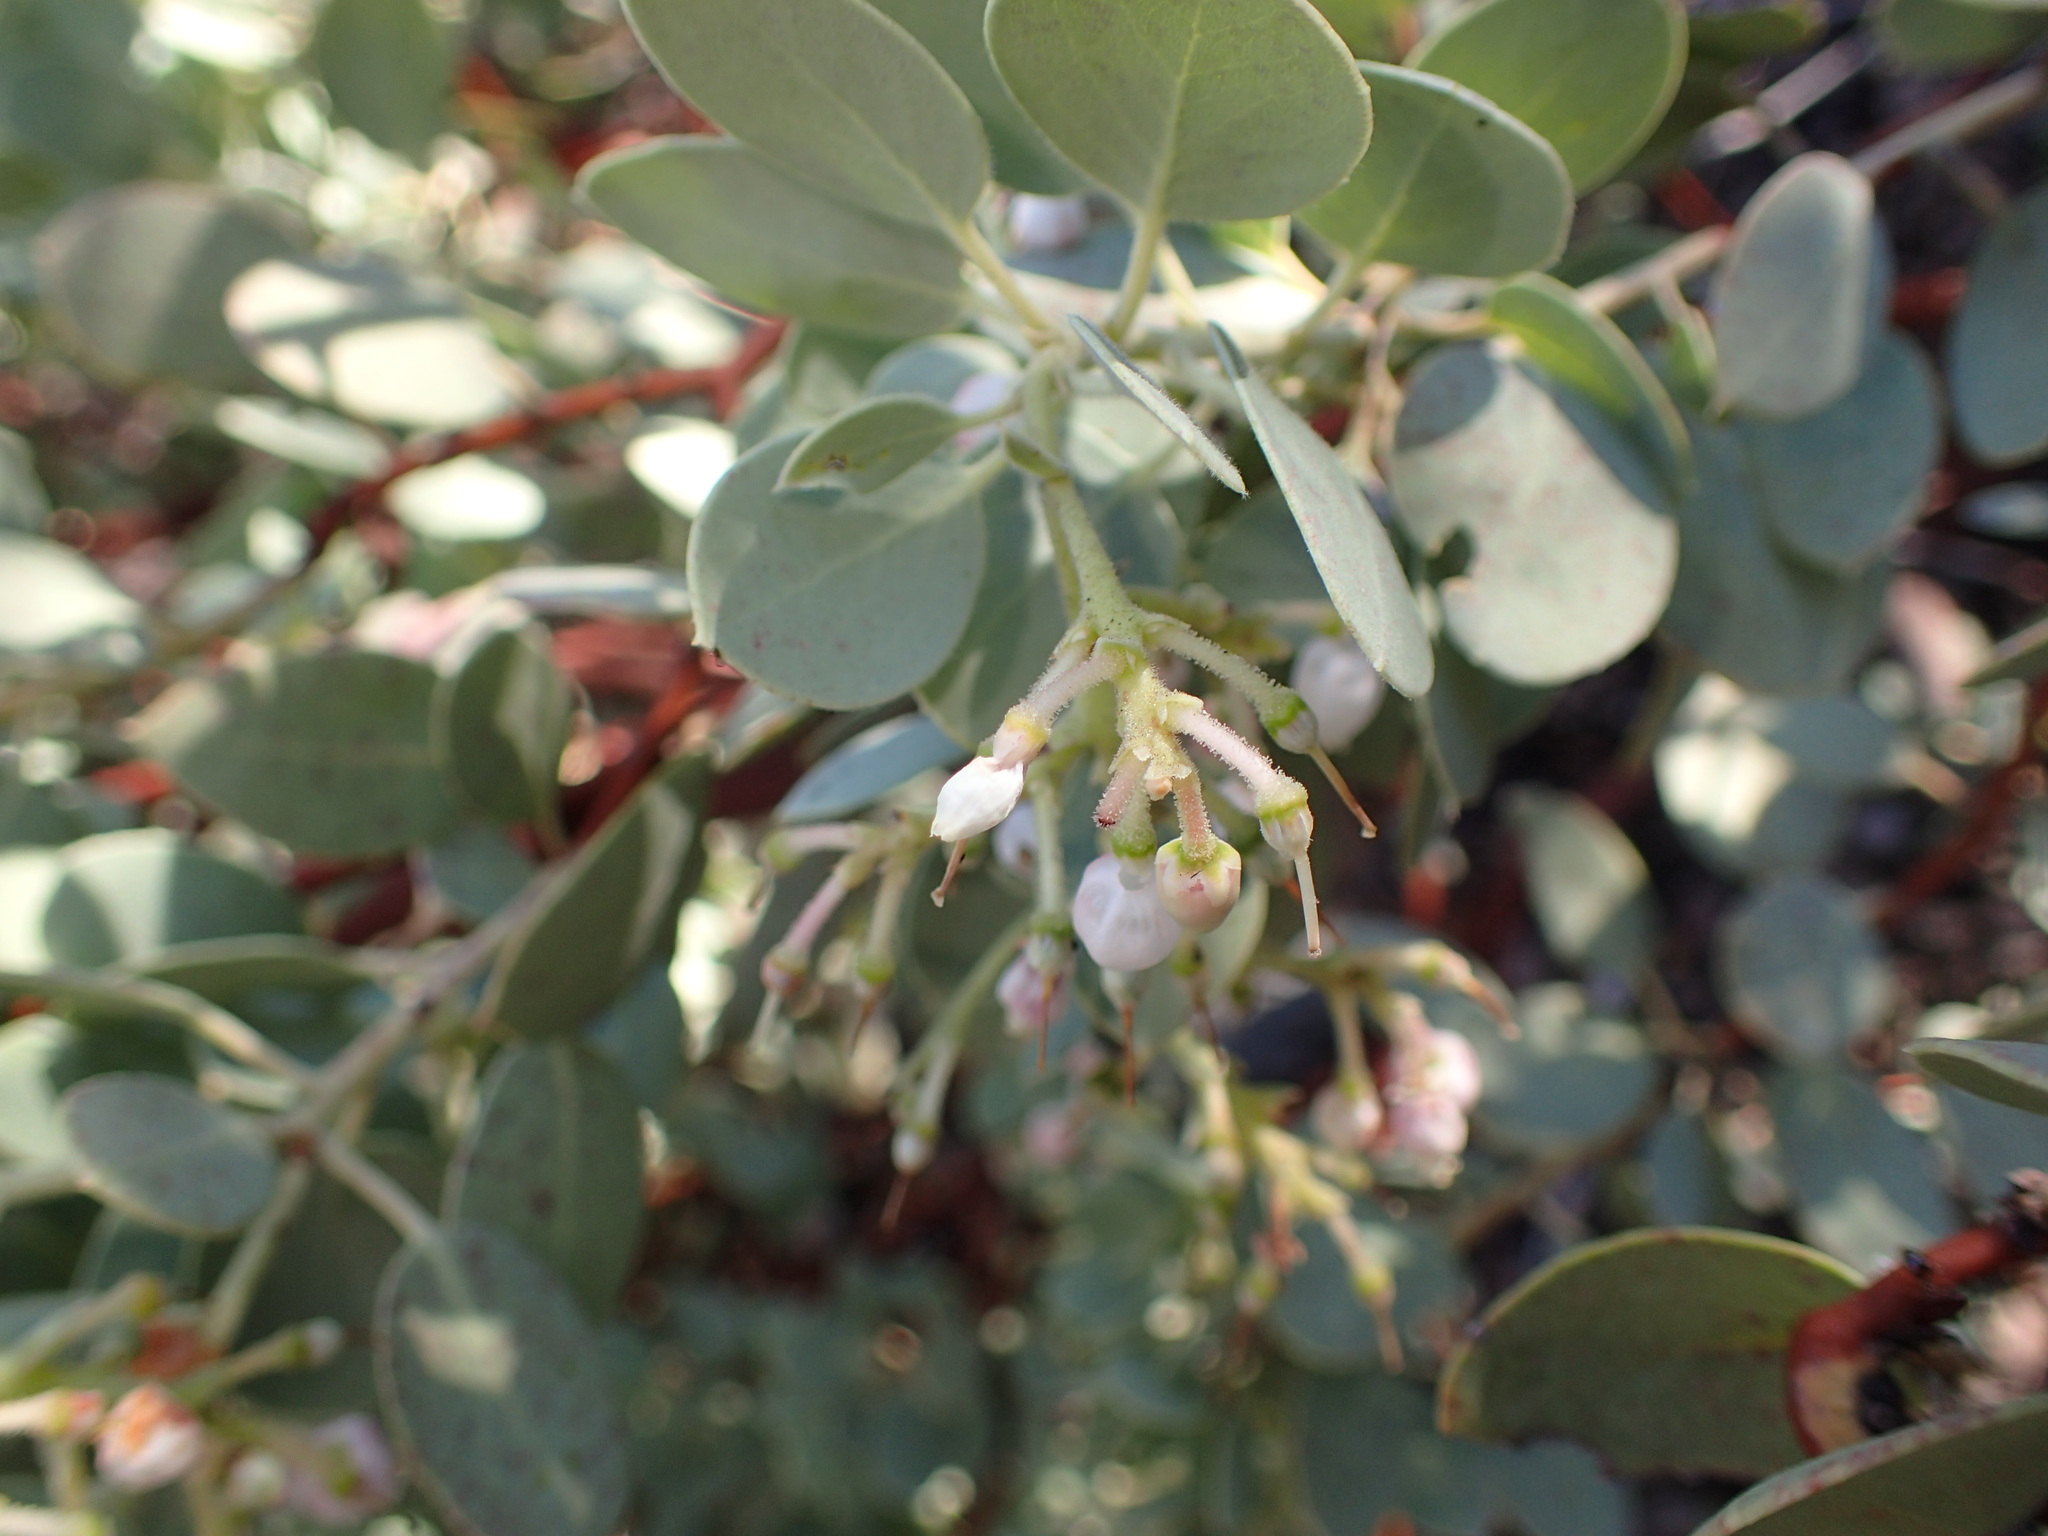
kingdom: Plantae
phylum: Tracheophyta
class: Magnoliopsida
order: Ericales
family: Ericaceae
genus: Arctostaphylos
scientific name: Arctostaphylos glauca
